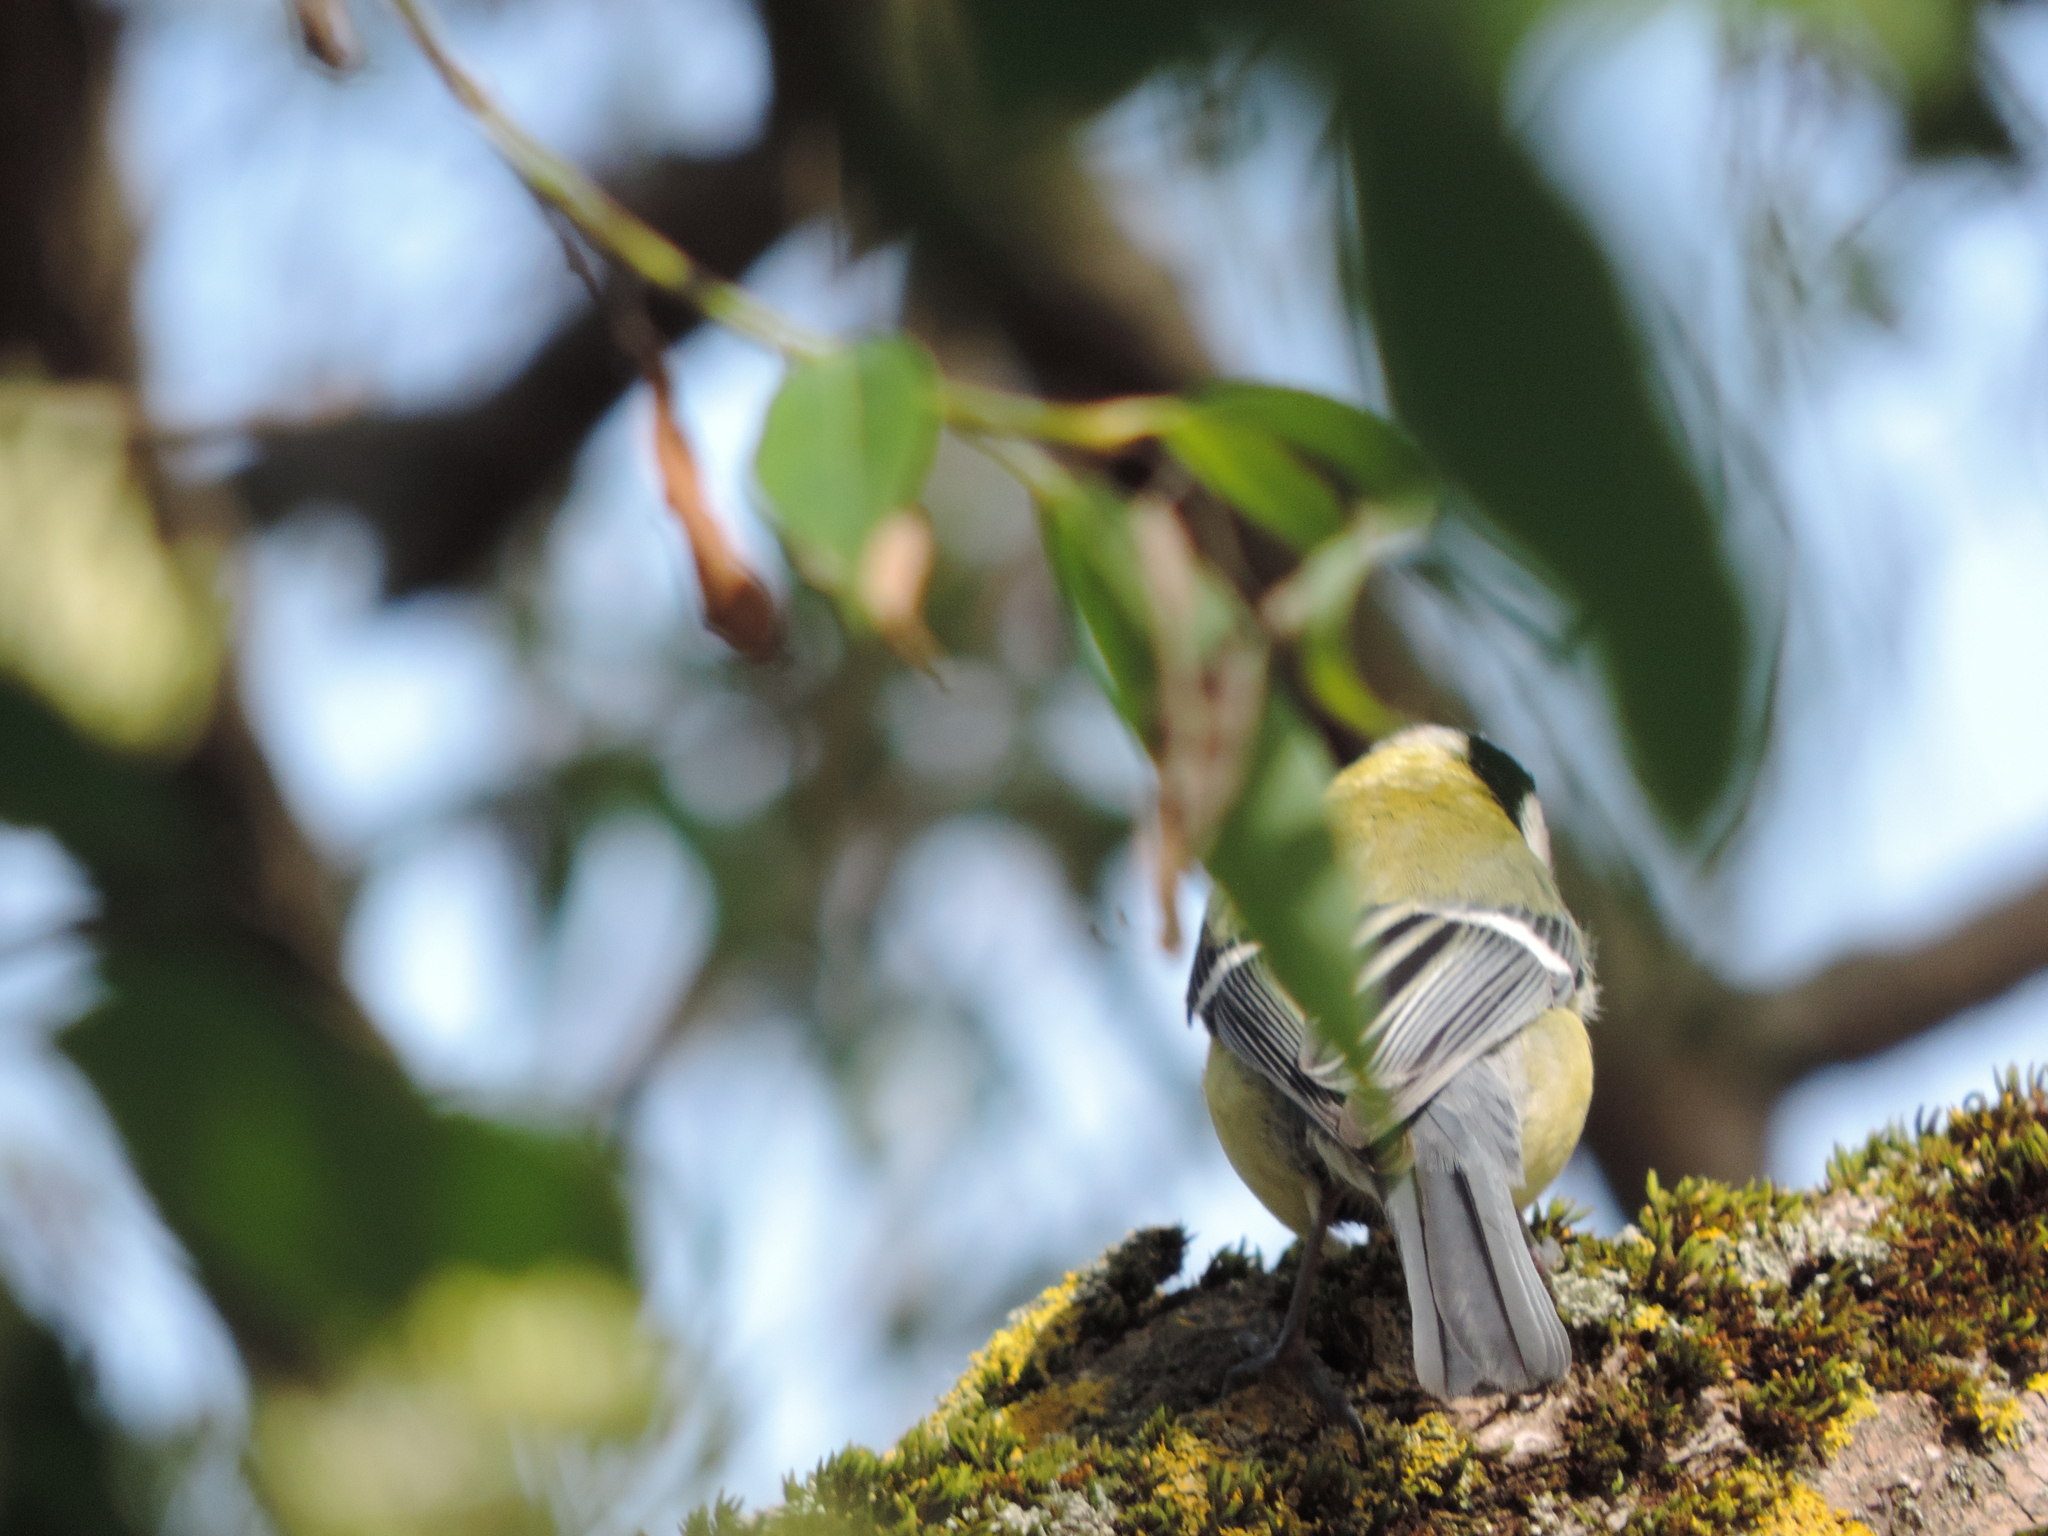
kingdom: Animalia
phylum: Chordata
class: Aves
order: Passeriformes
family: Paridae
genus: Parus
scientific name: Parus major
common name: Great tit
